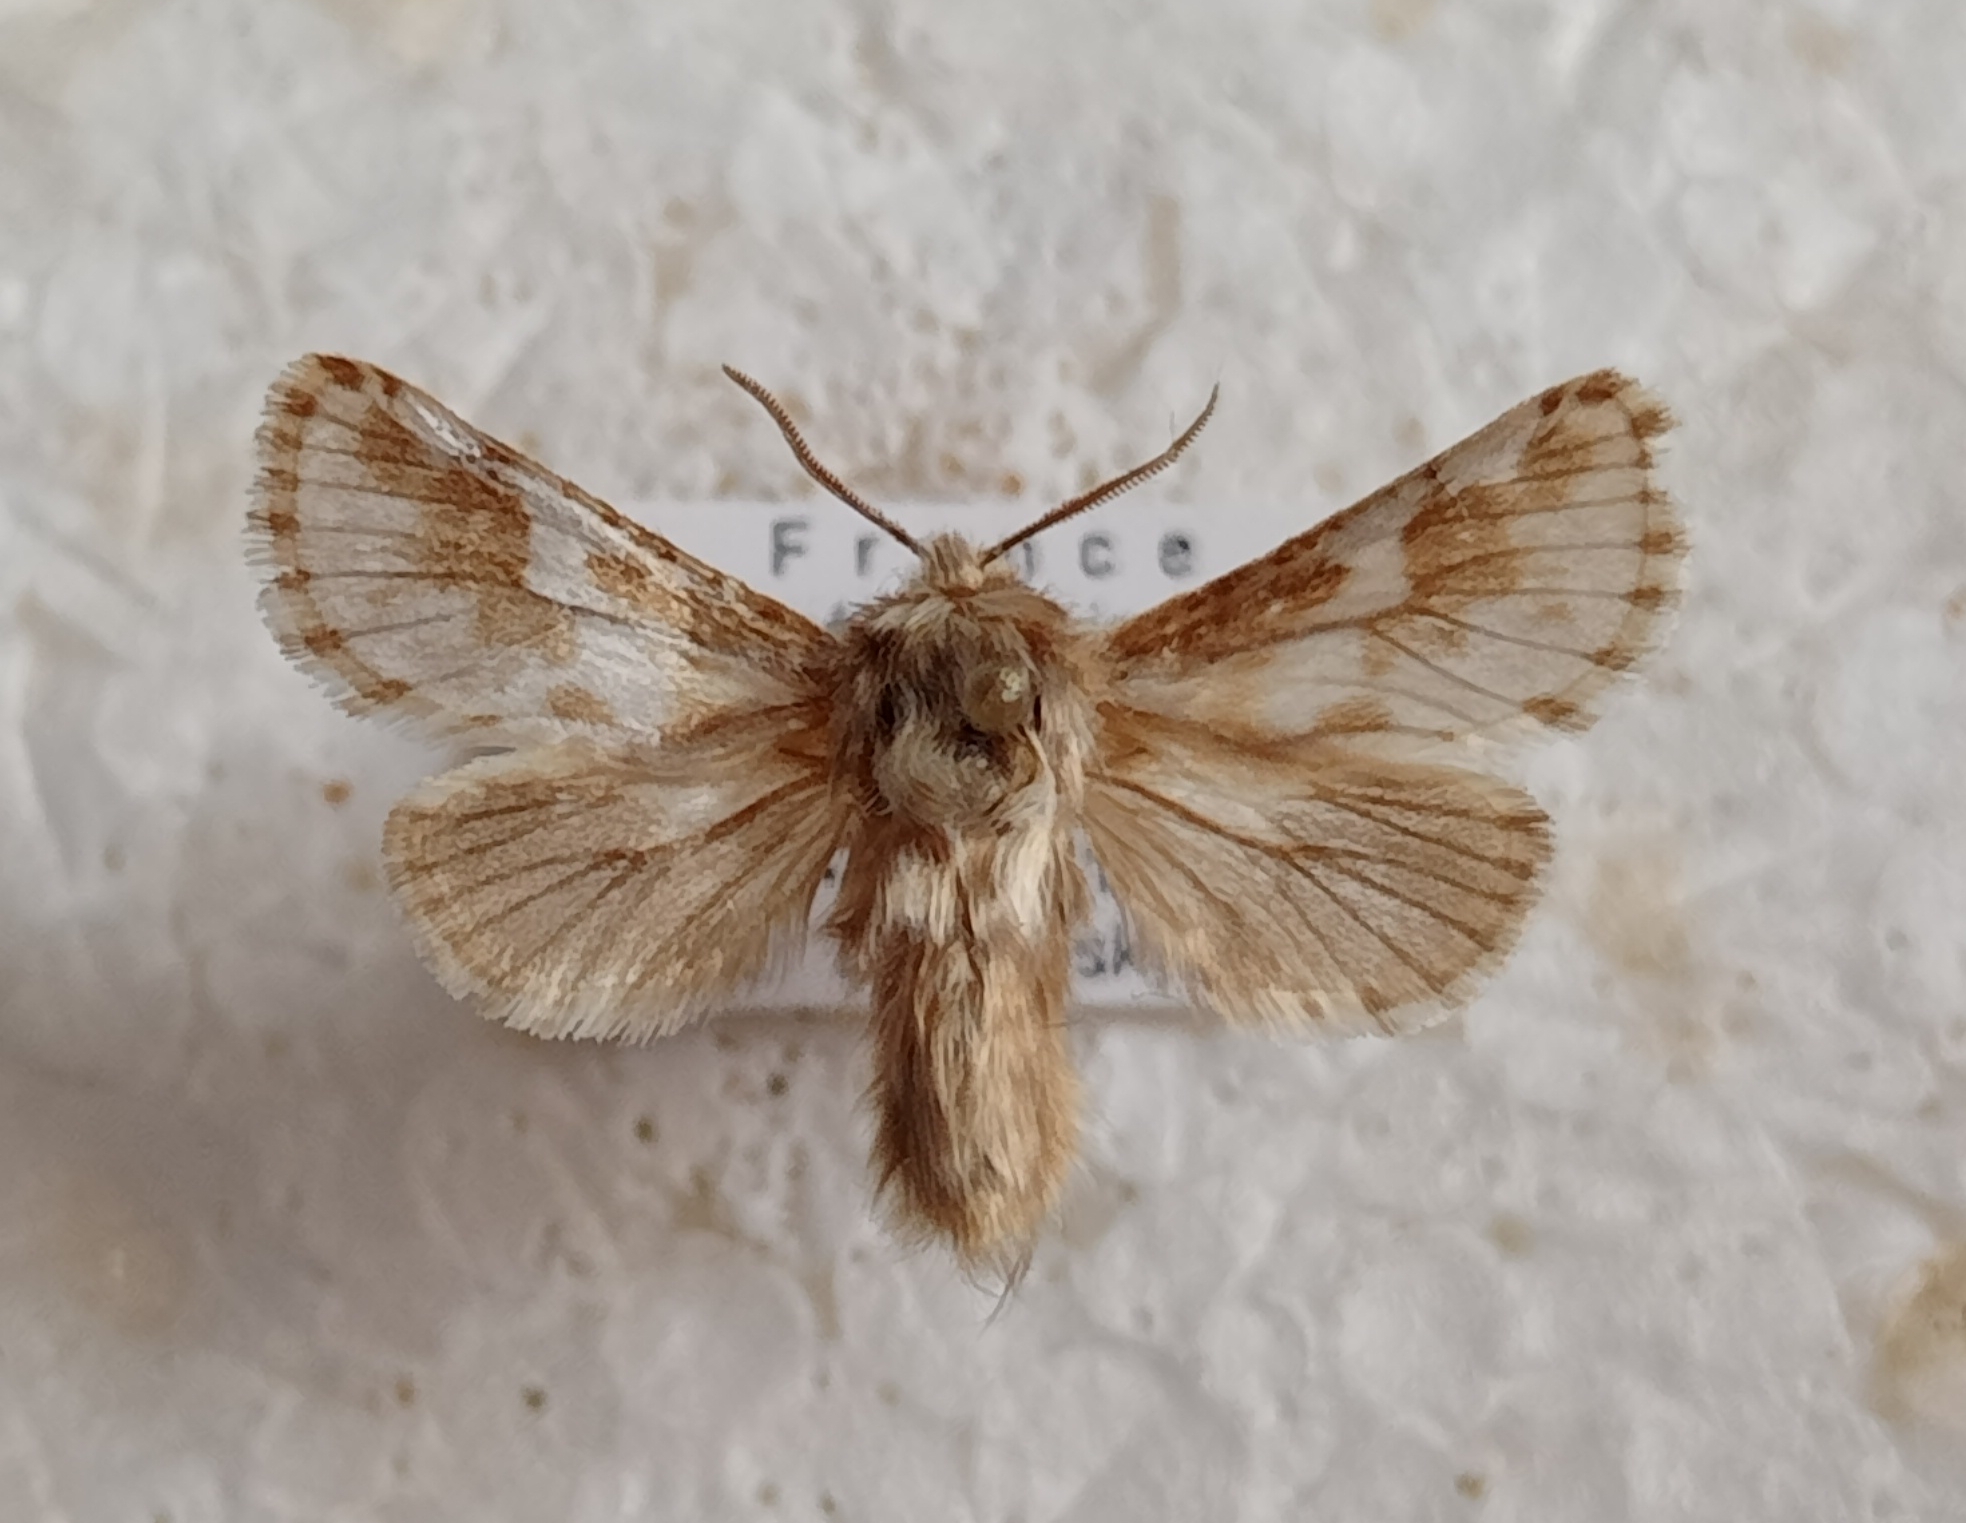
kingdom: Animalia
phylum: Arthropoda
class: Insecta
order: Lepidoptera
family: Cossidae
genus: Dyspessa
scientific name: Dyspessa ulula
